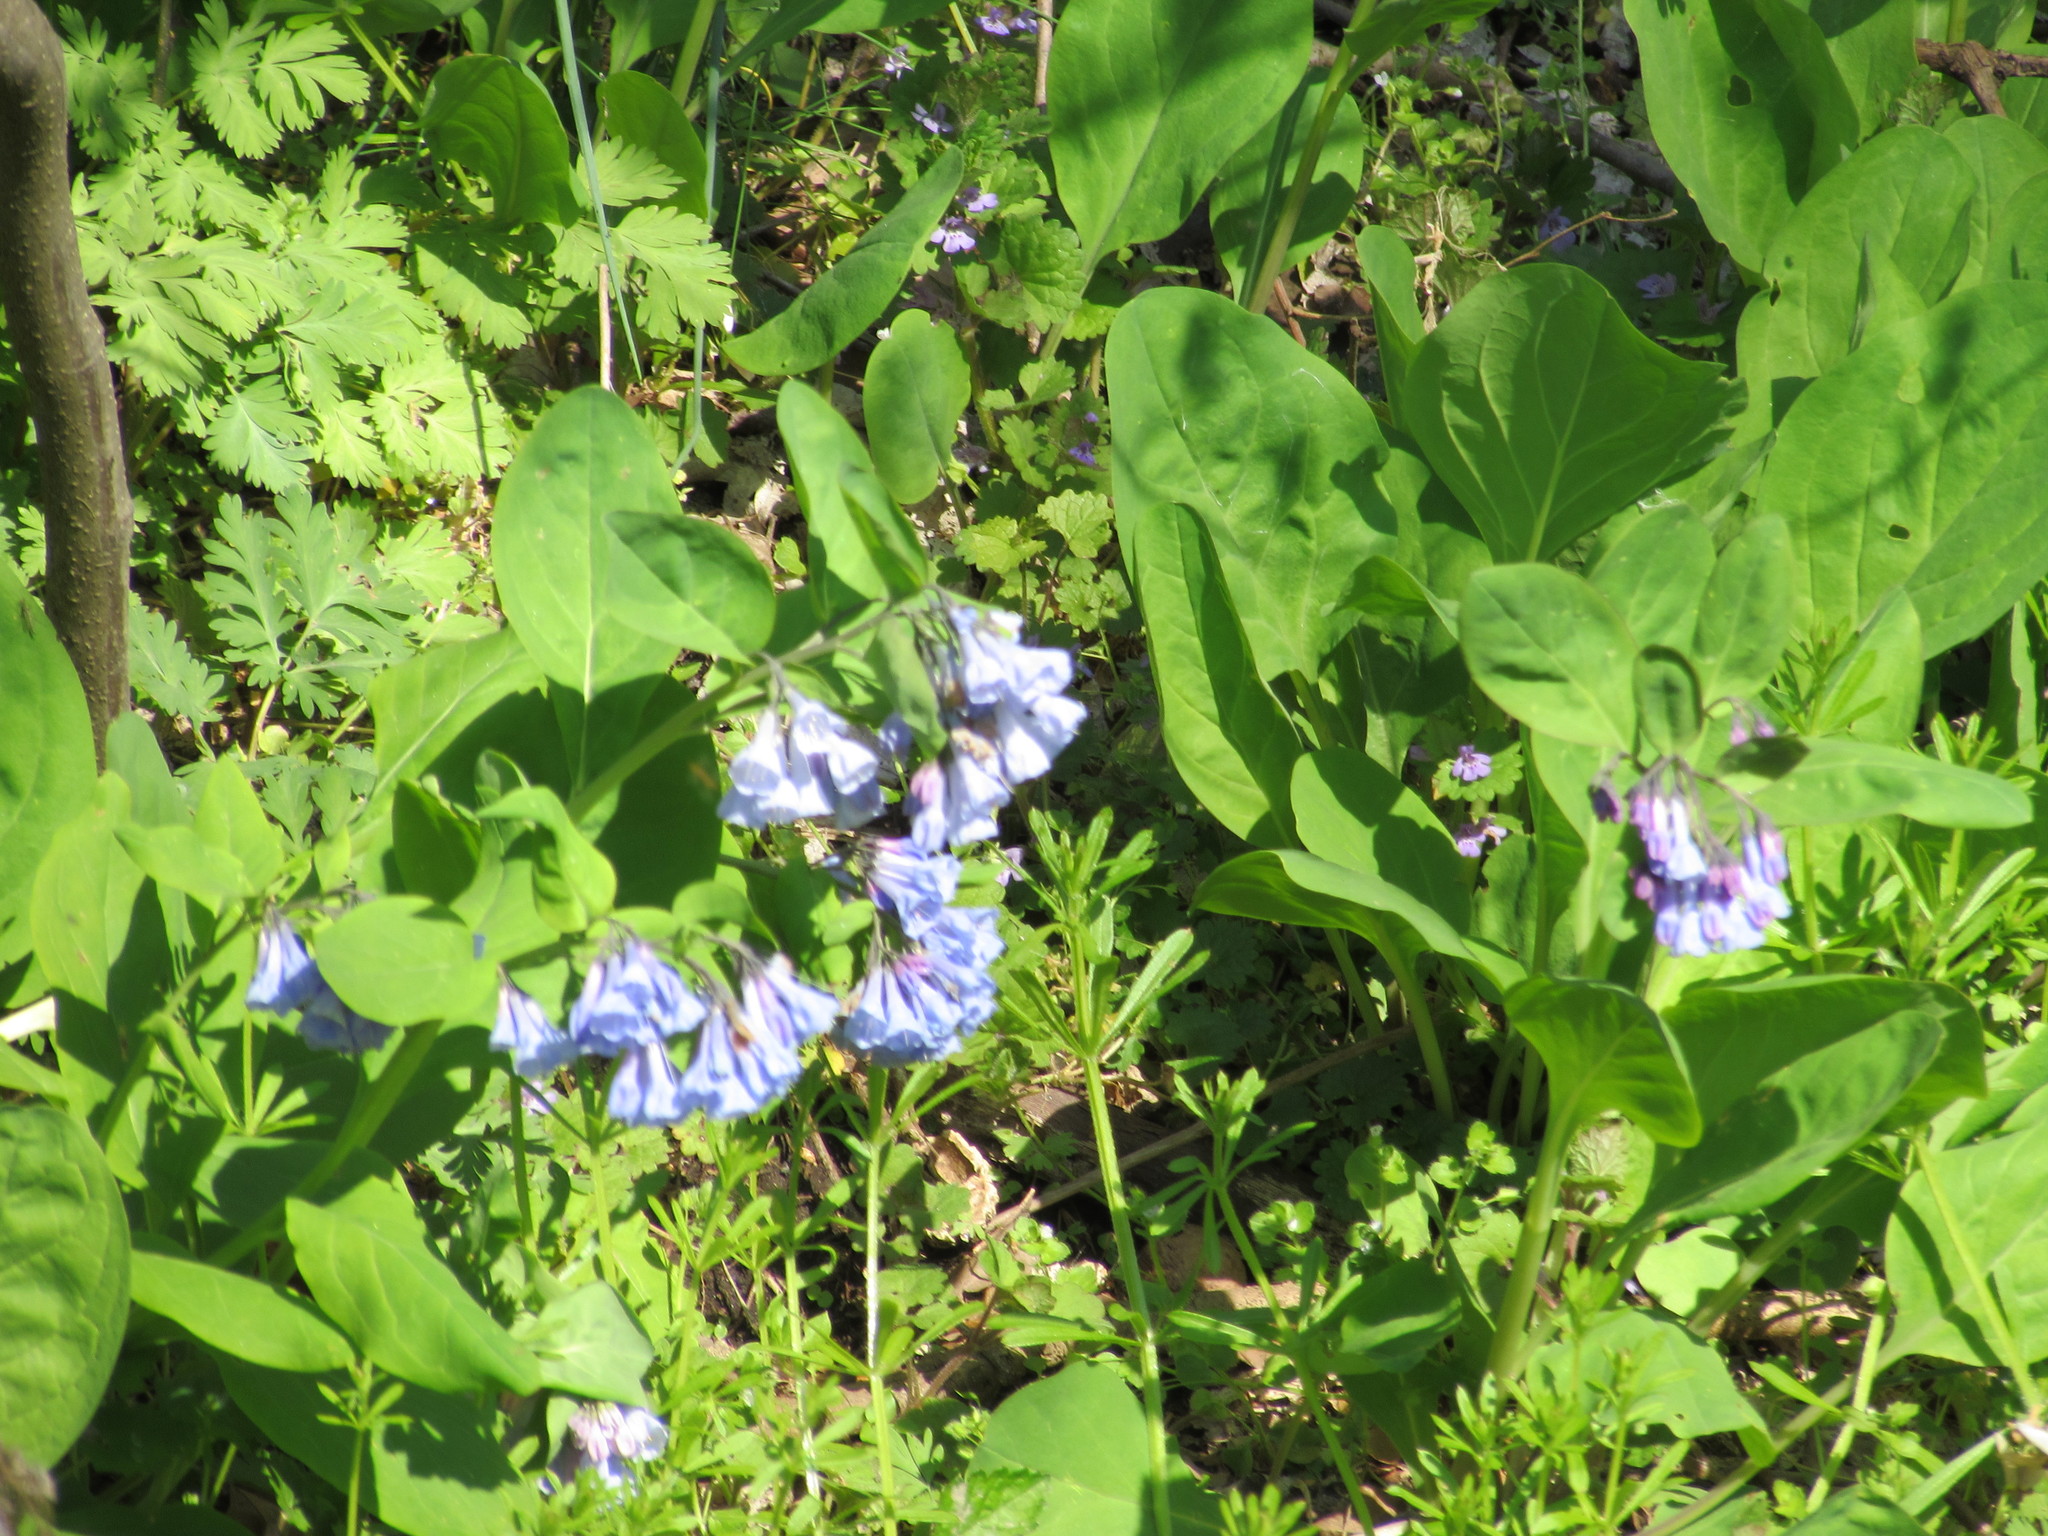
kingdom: Plantae
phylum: Tracheophyta
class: Magnoliopsida
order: Boraginales
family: Boraginaceae
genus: Mertensia
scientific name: Mertensia virginica
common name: Virginia bluebells
